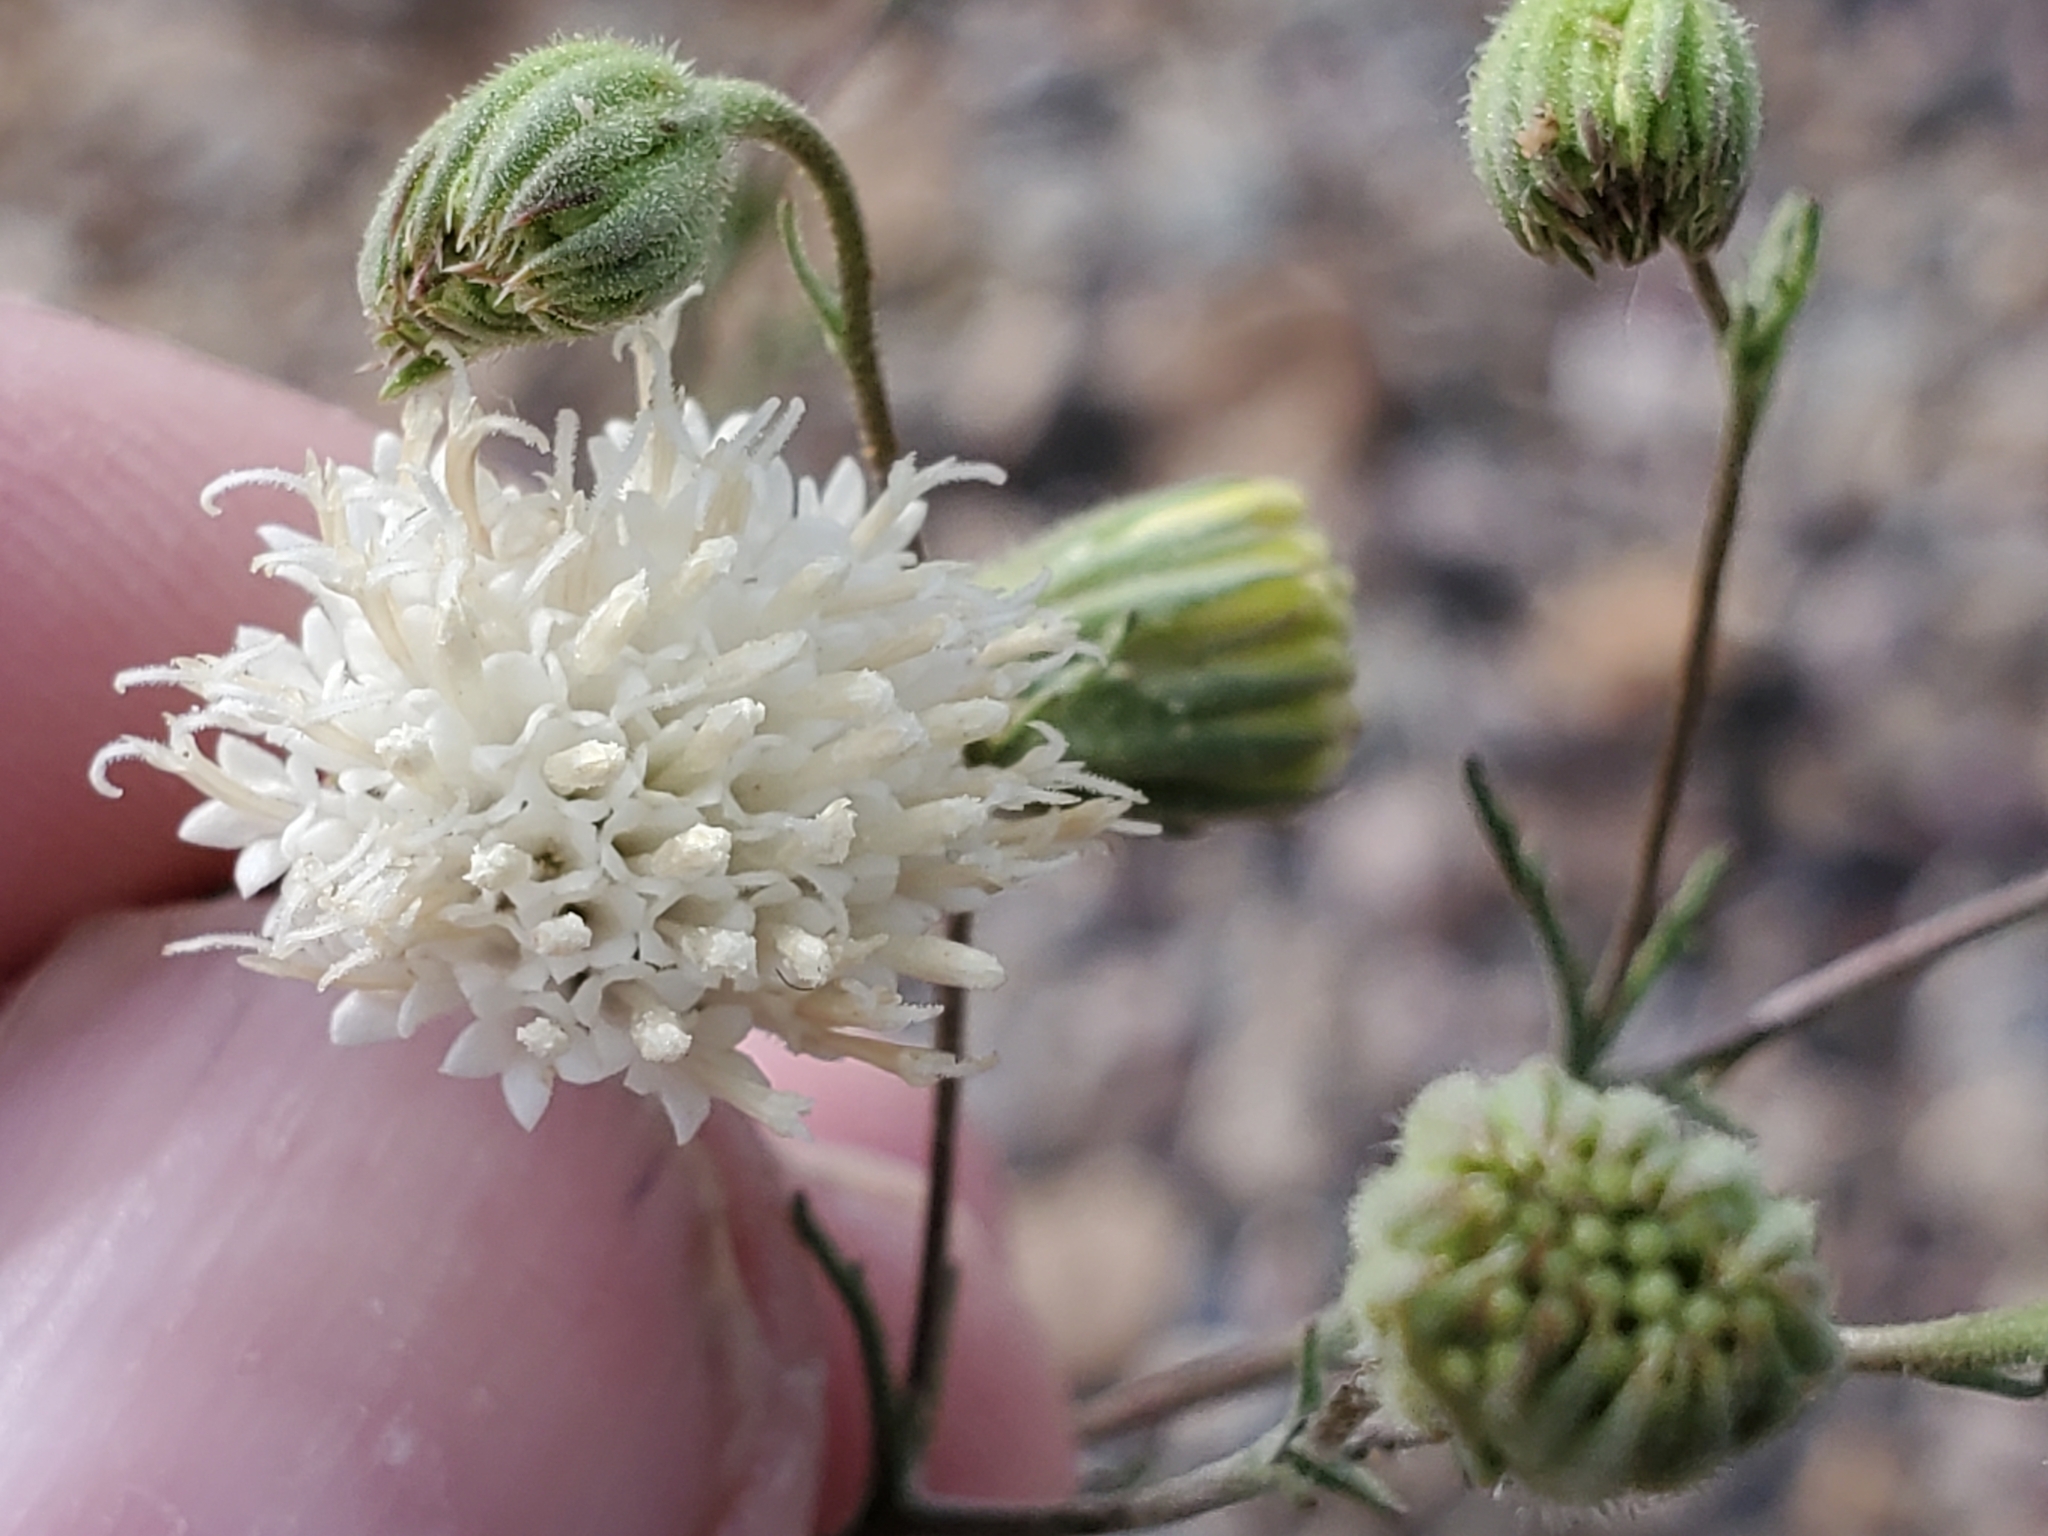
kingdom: Plantae
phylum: Tracheophyta
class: Magnoliopsida
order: Asterales
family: Asteraceae
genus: Chaenactis
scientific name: Chaenactis carphoclinia
